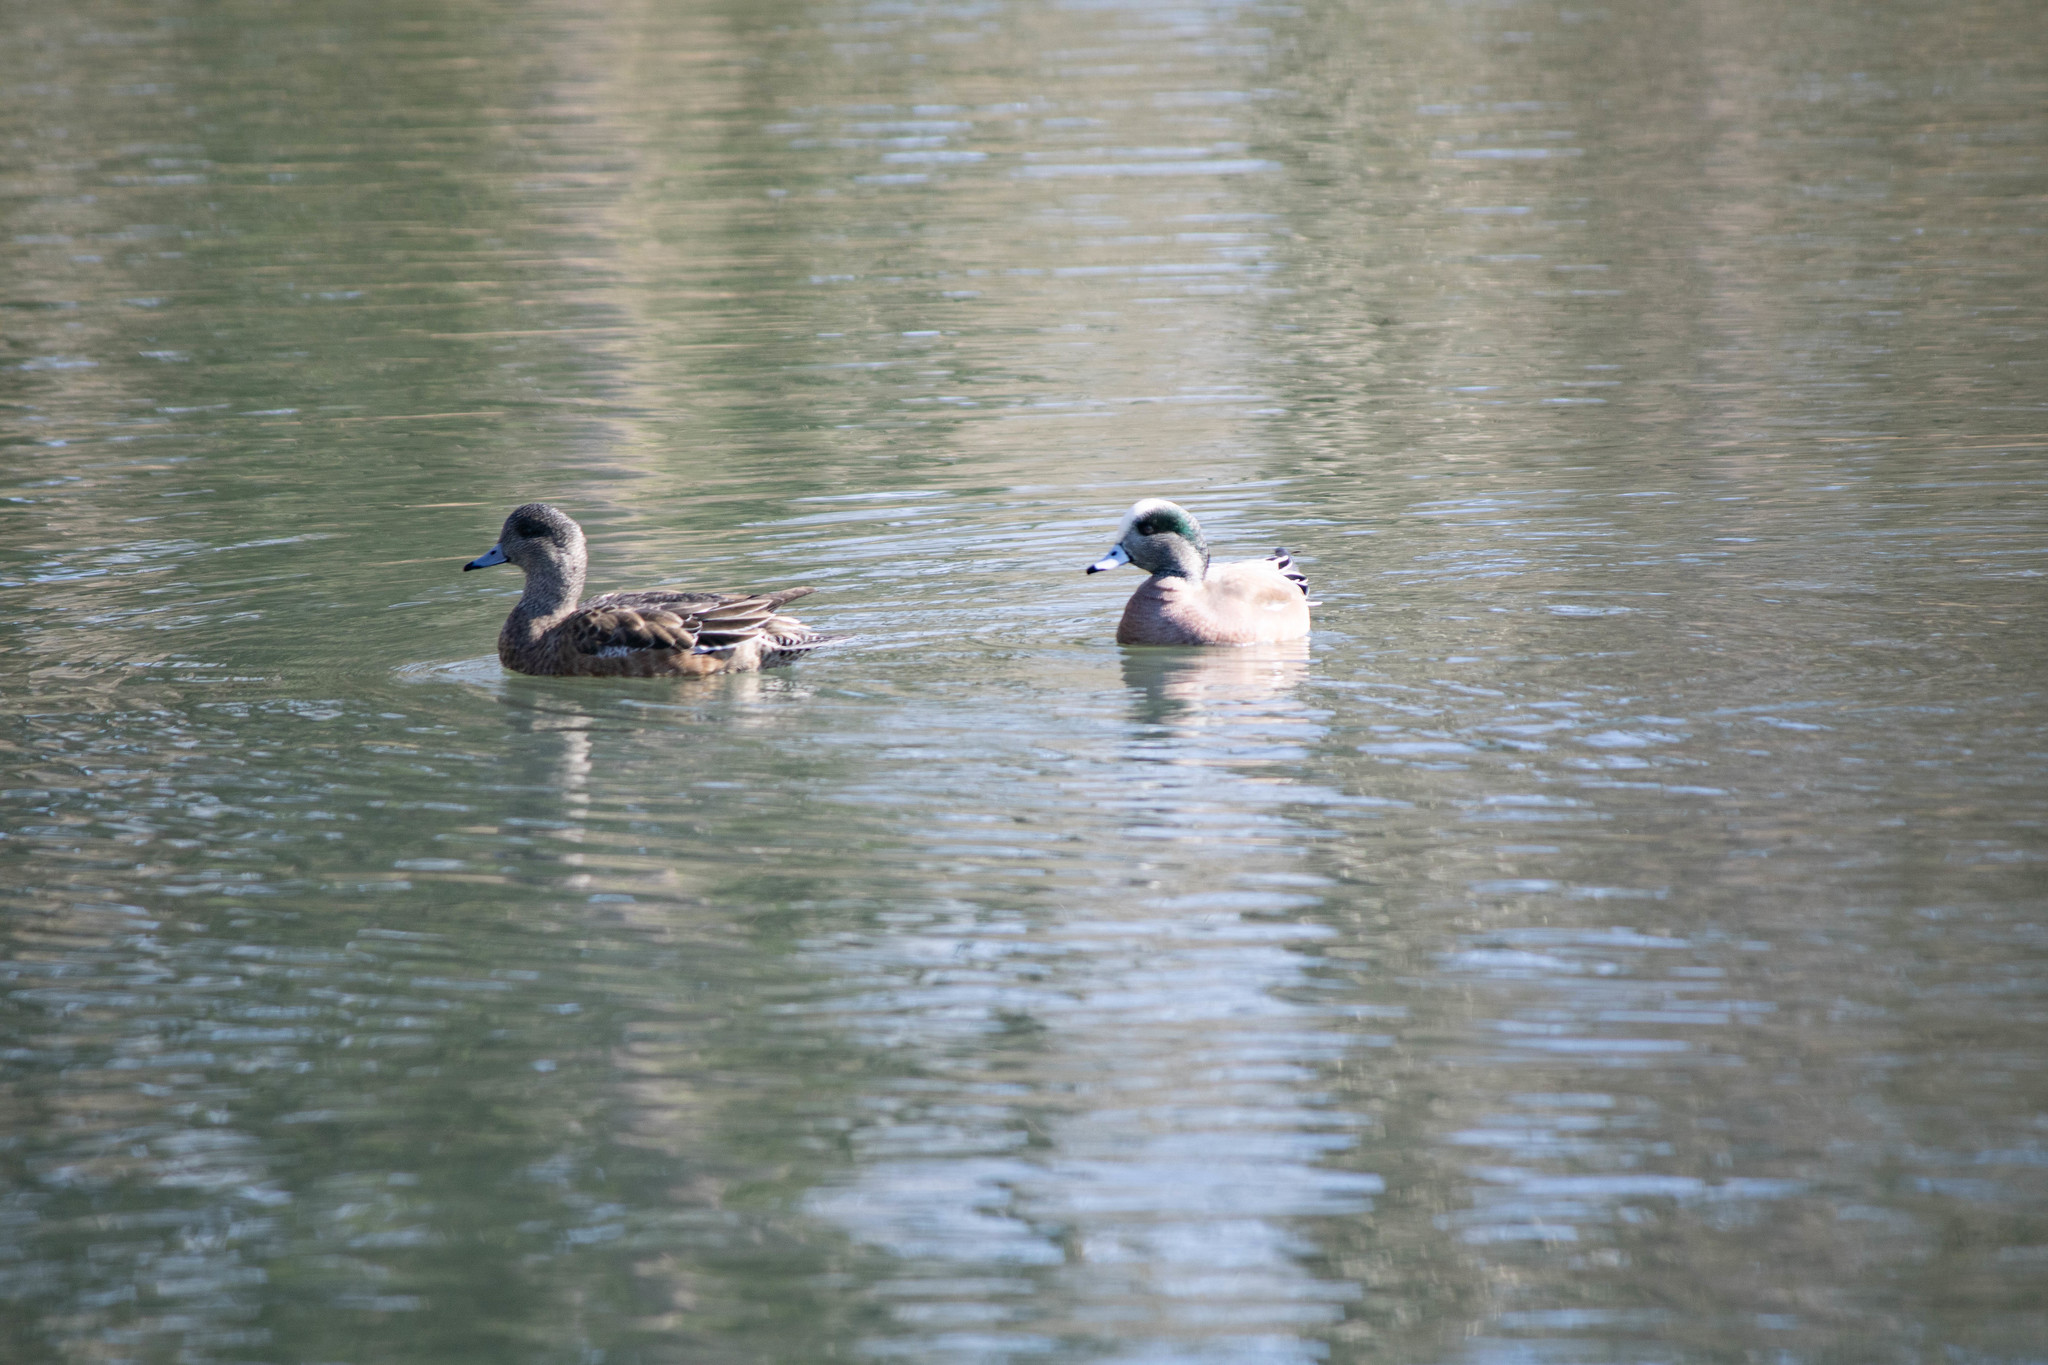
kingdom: Animalia
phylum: Chordata
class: Aves
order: Anseriformes
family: Anatidae
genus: Mareca
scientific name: Mareca americana
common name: American wigeon
